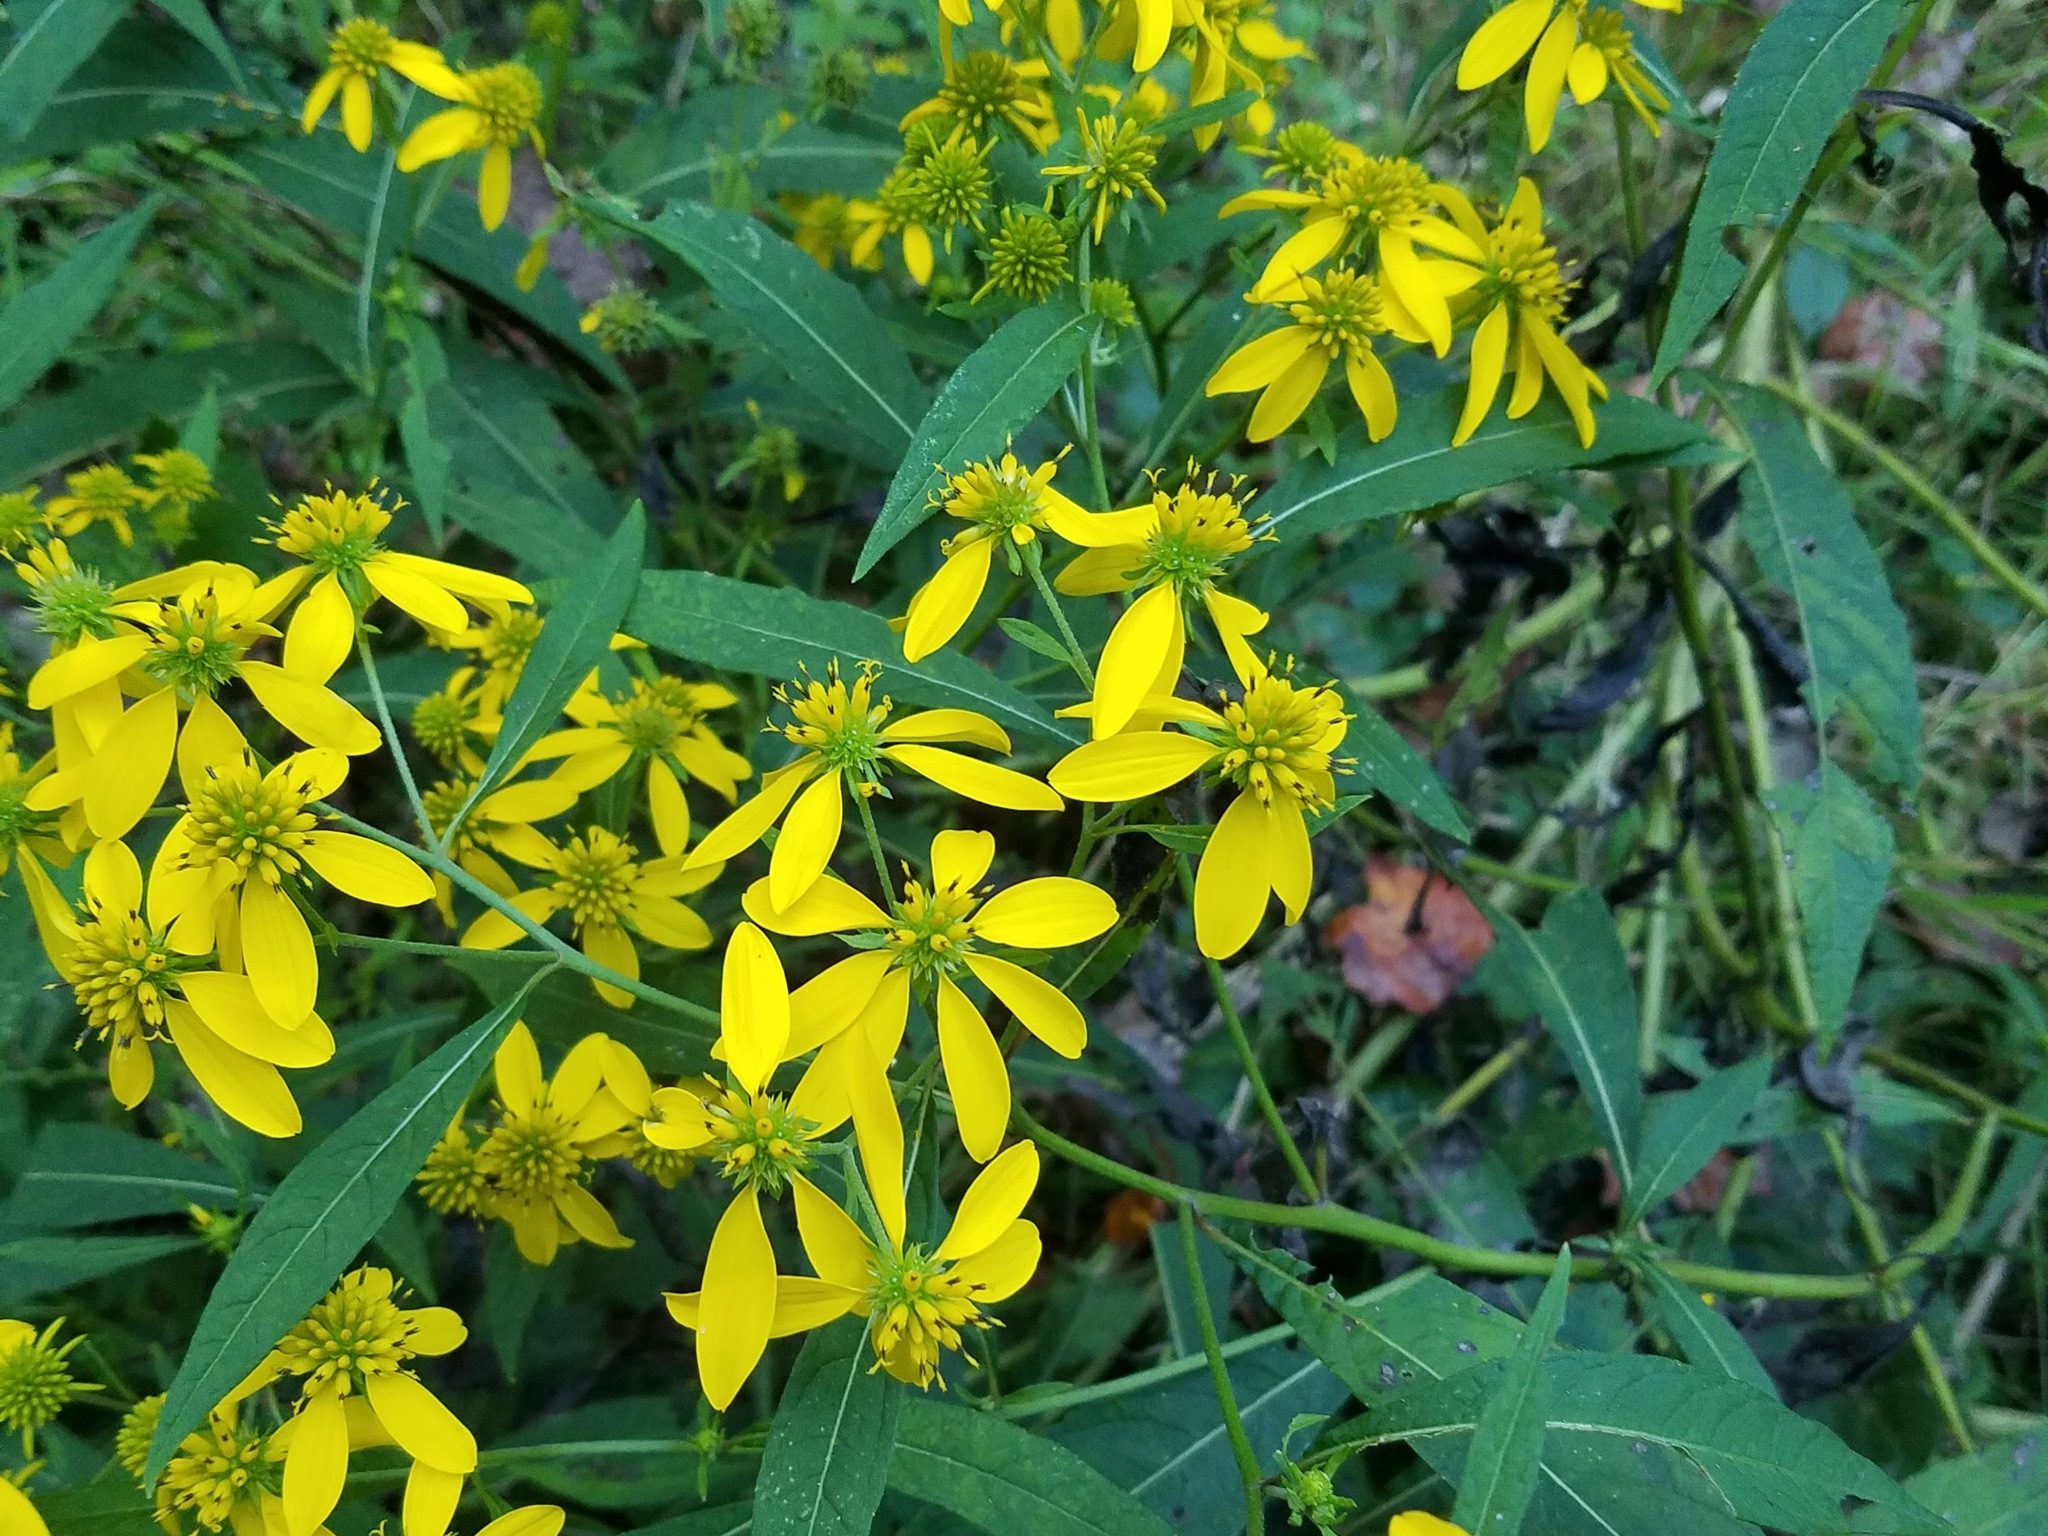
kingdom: Plantae
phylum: Tracheophyta
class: Magnoliopsida
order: Asterales
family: Asteraceae
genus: Verbesina
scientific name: Verbesina alternifolia
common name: Wingstem
